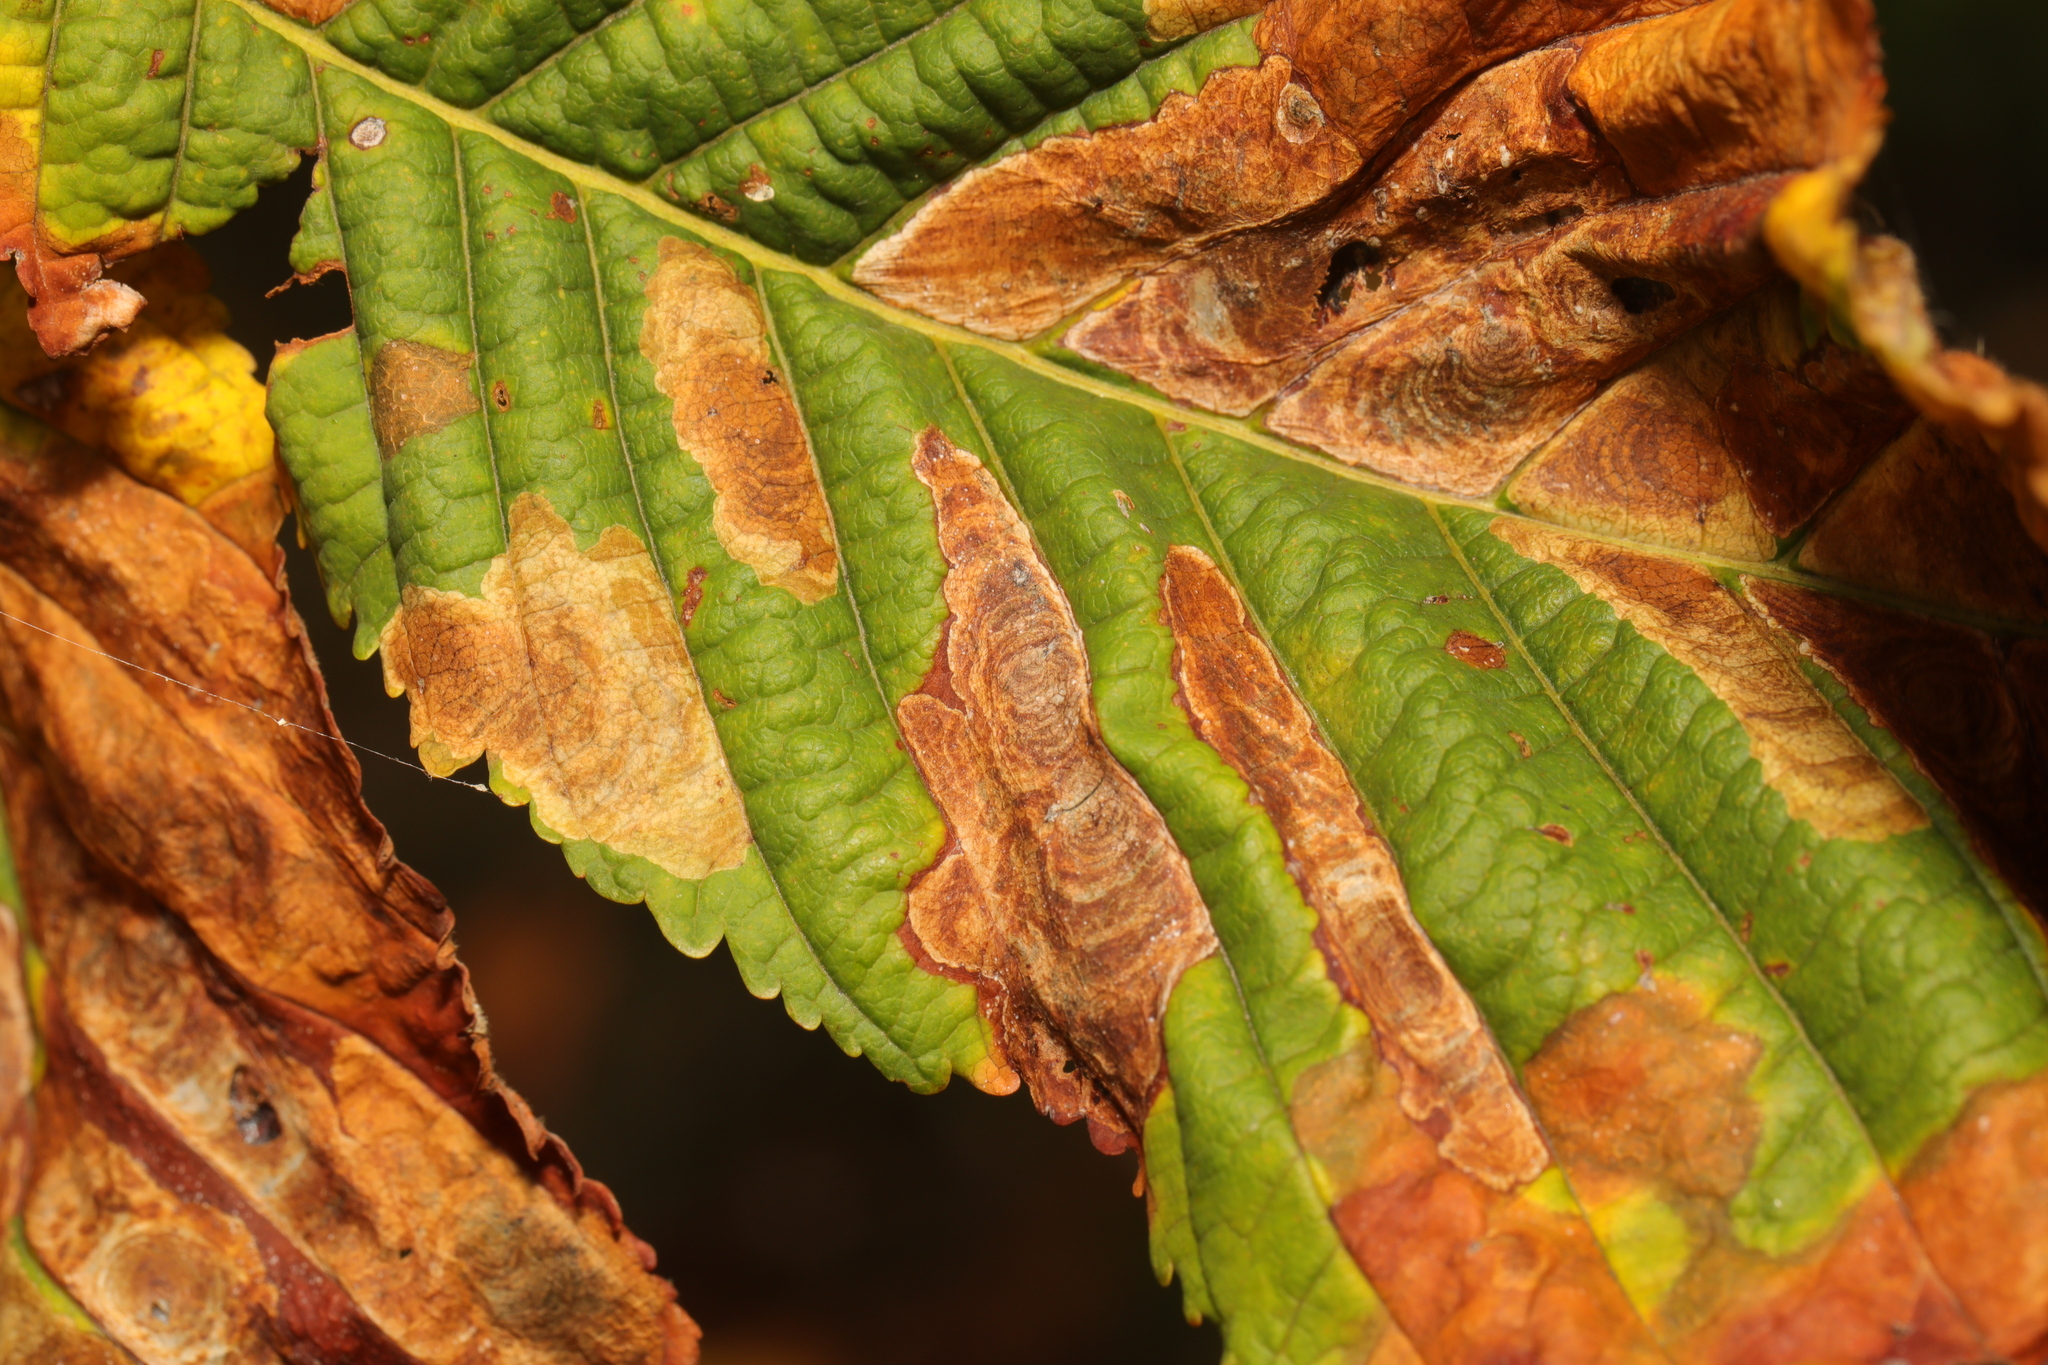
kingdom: Animalia
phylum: Arthropoda
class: Insecta
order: Lepidoptera
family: Gracillariidae
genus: Cameraria
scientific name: Cameraria ohridella
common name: Horse-chestnut leaf-miner
